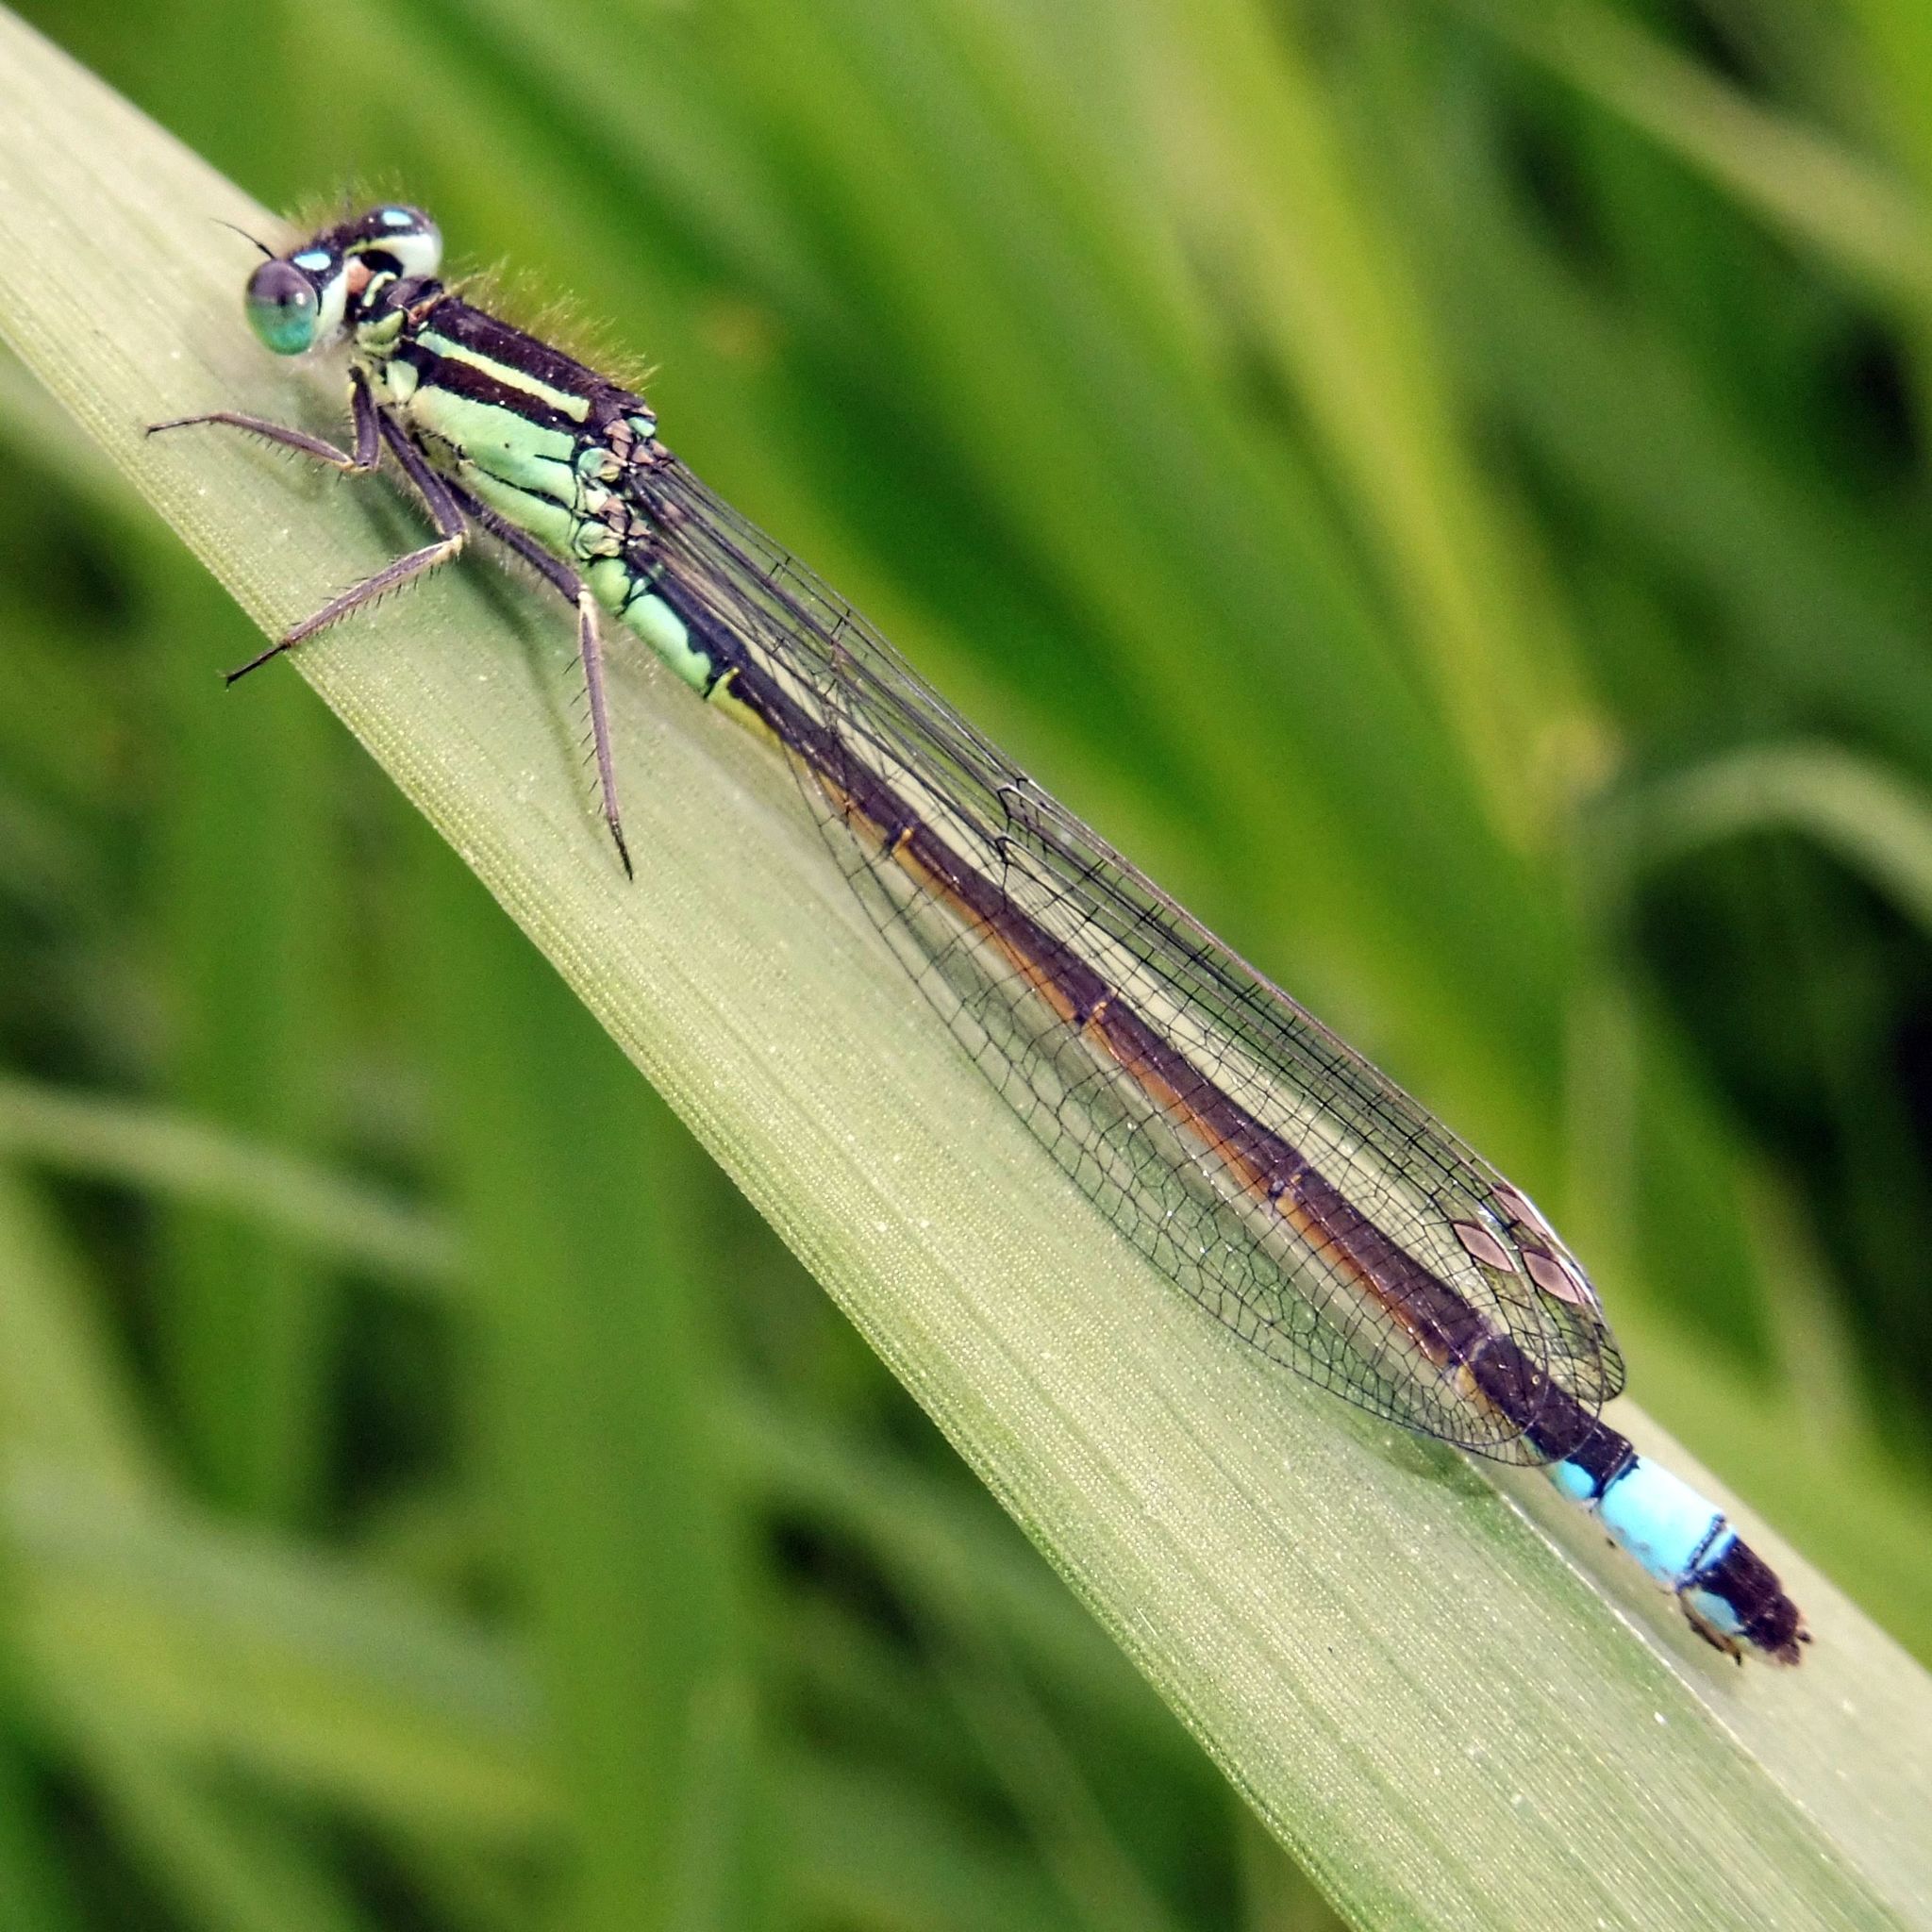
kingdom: Animalia
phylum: Arthropoda
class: Insecta
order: Odonata
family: Coenagrionidae
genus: Ischnura
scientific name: Ischnura elegans
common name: Blue-tailed damselfly
